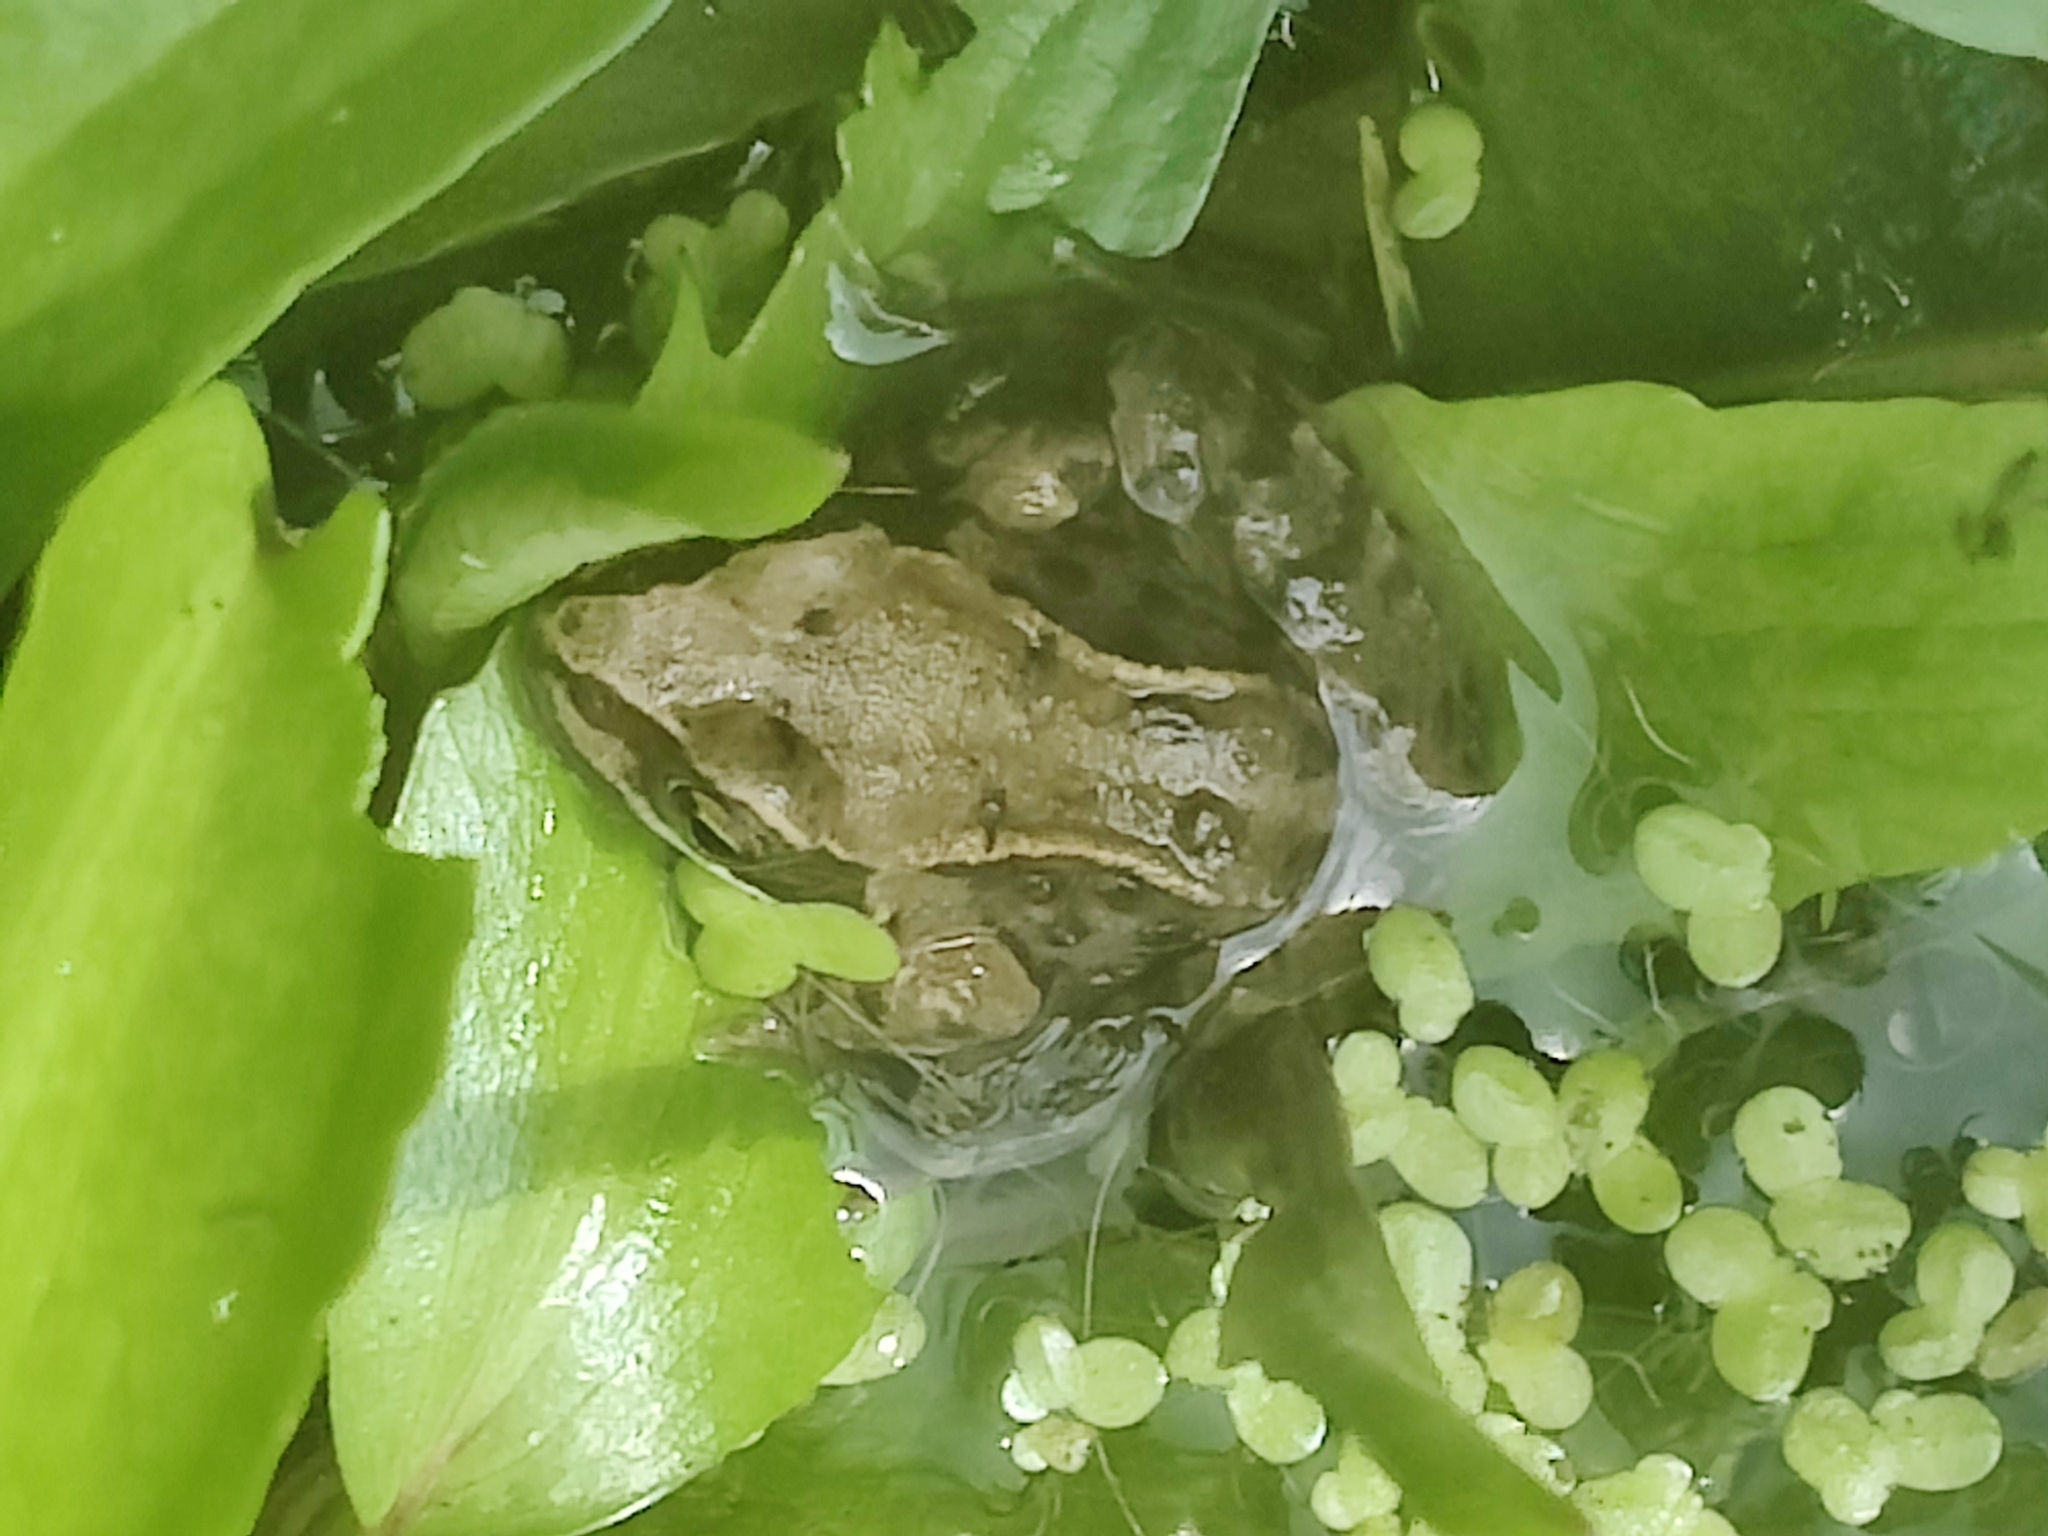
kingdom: Animalia
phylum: Chordata
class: Amphibia
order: Anura
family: Ranidae
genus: Rana
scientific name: Rana temporaria
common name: Common frog
